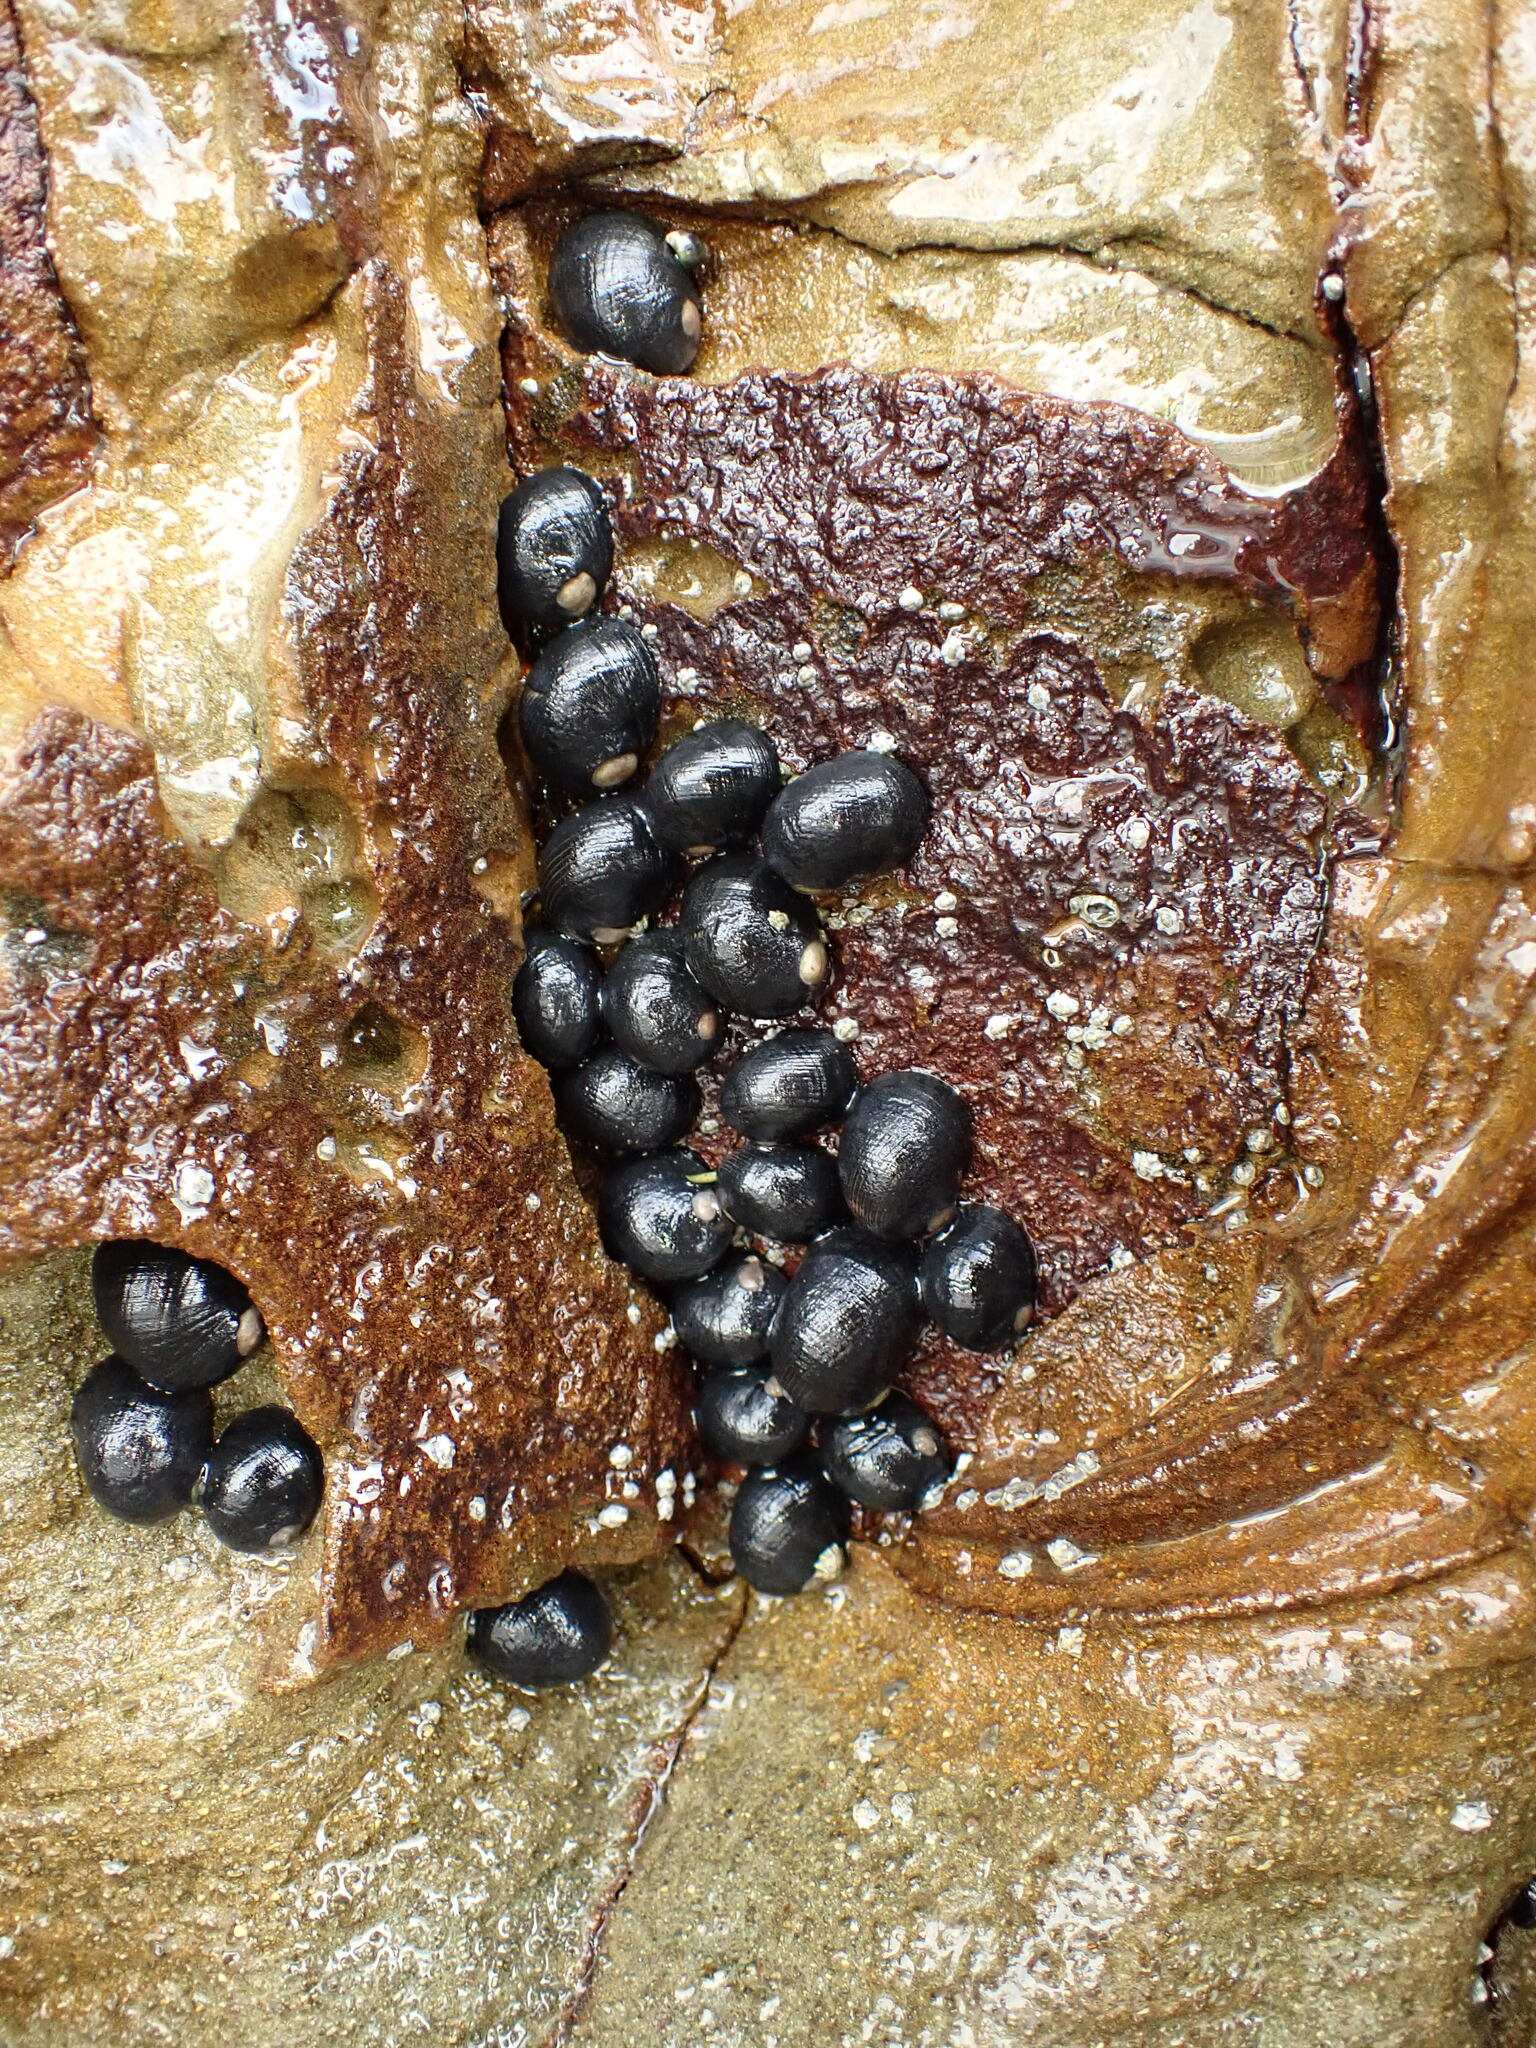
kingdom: Animalia
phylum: Mollusca
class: Gastropoda
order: Cycloneritida
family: Neritidae
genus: Nerita
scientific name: Nerita melanotragus
